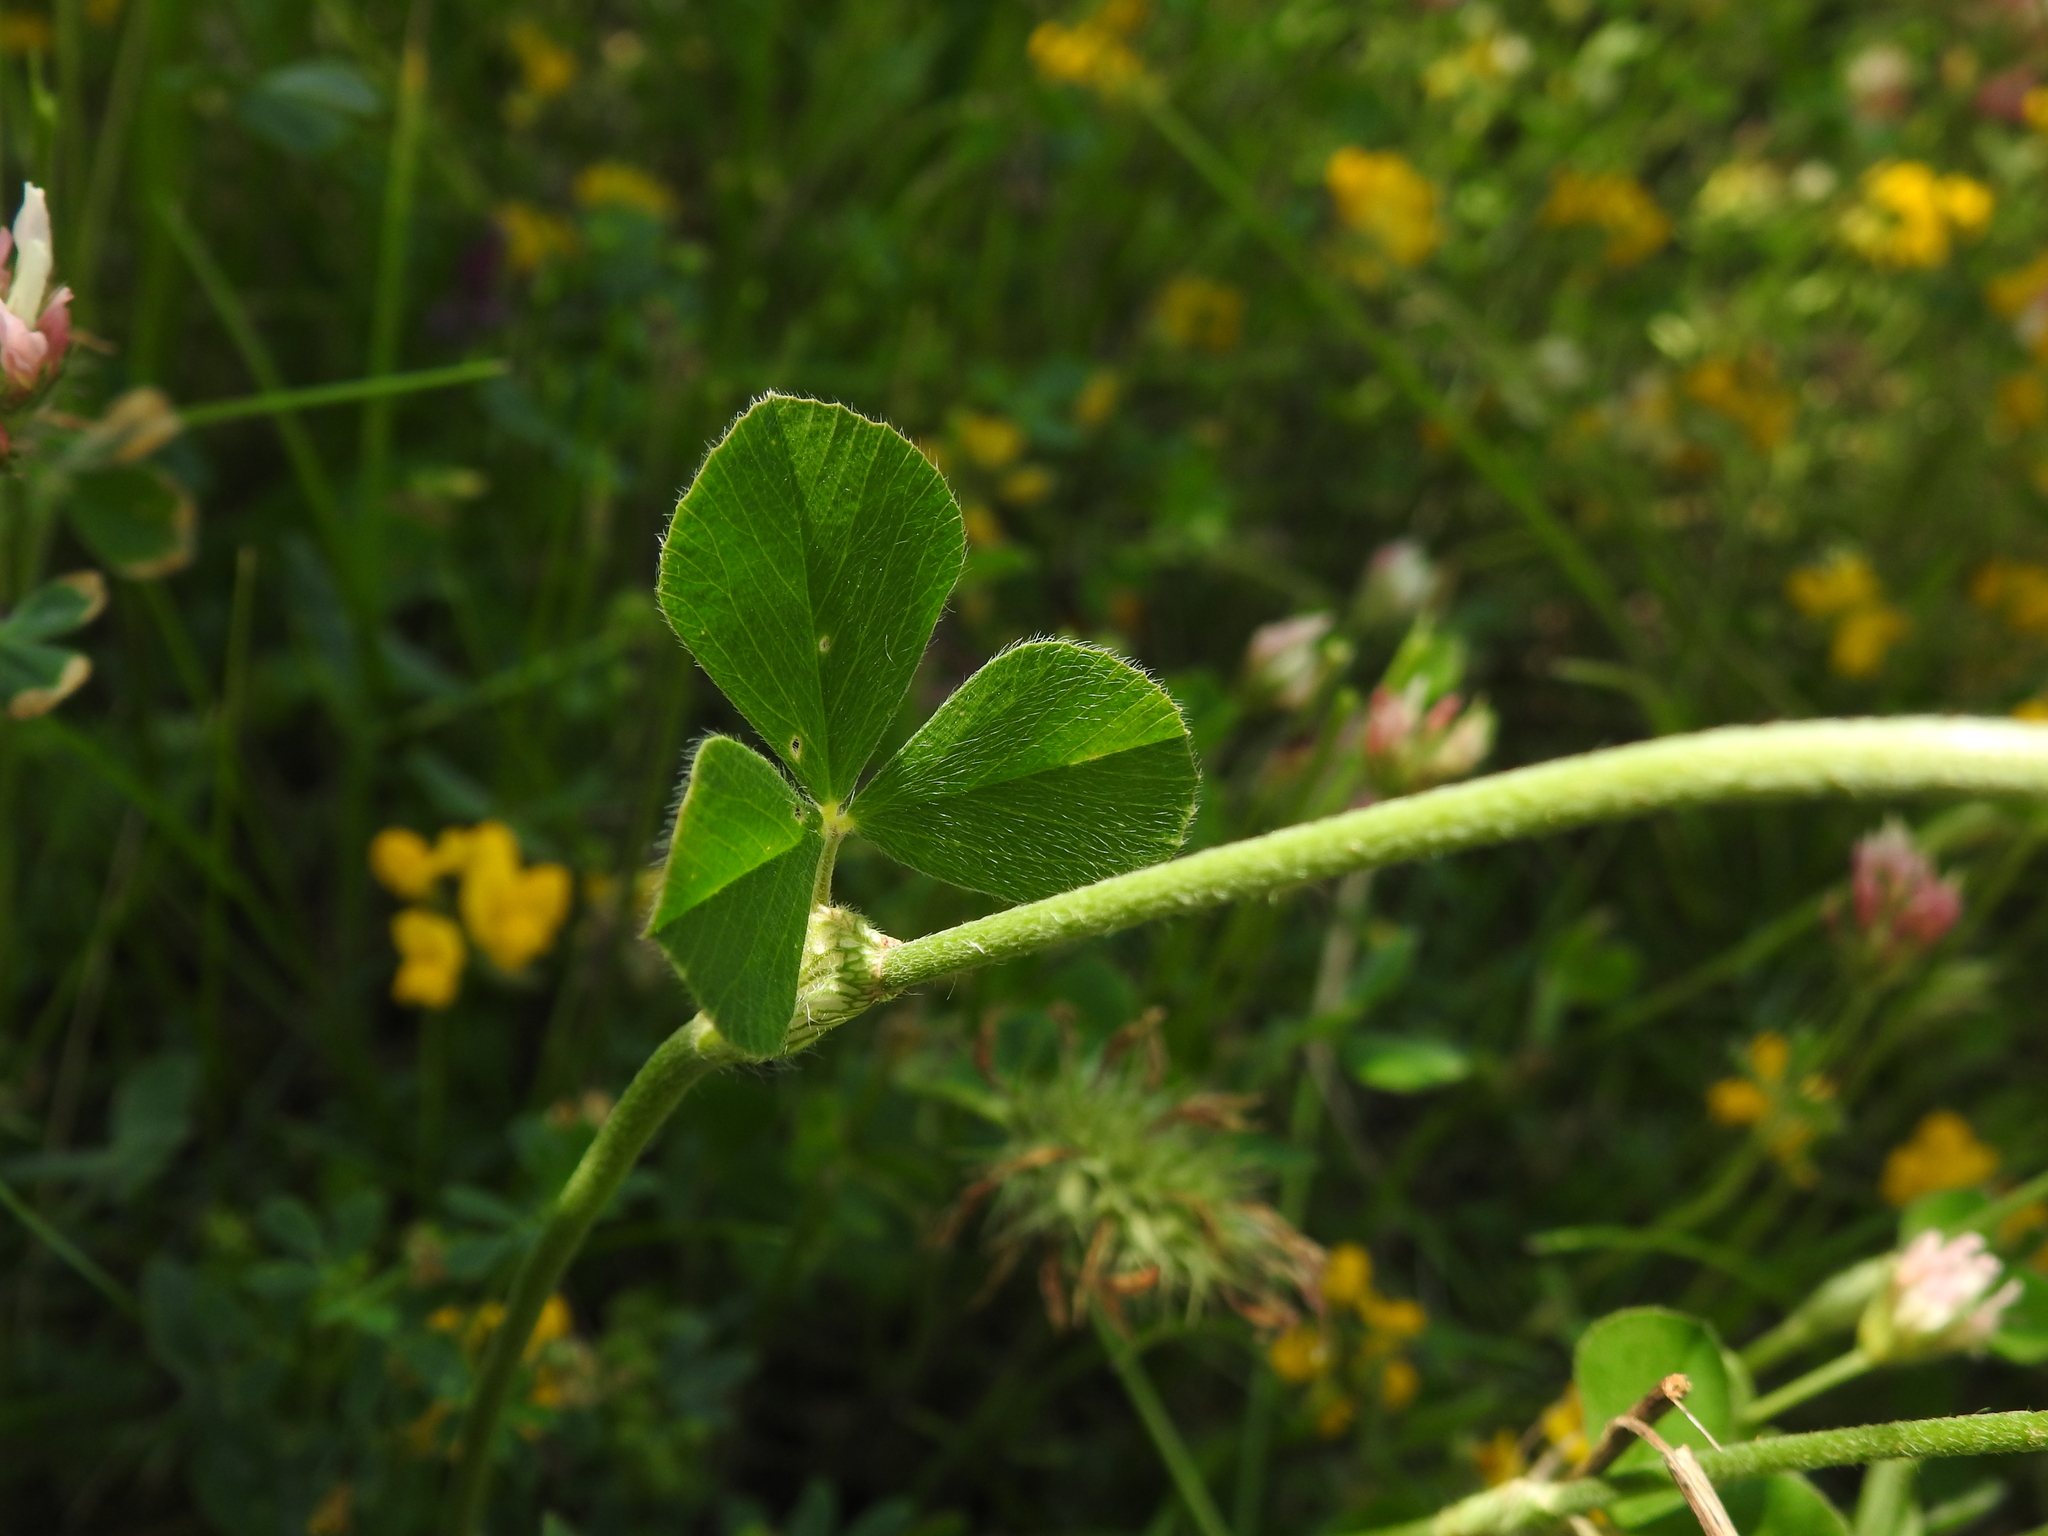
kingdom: Plantae
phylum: Tracheophyta
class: Magnoliopsida
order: Fabales
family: Fabaceae
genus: Trifolium
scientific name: Trifolium incarnatum
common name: Crimson clover
